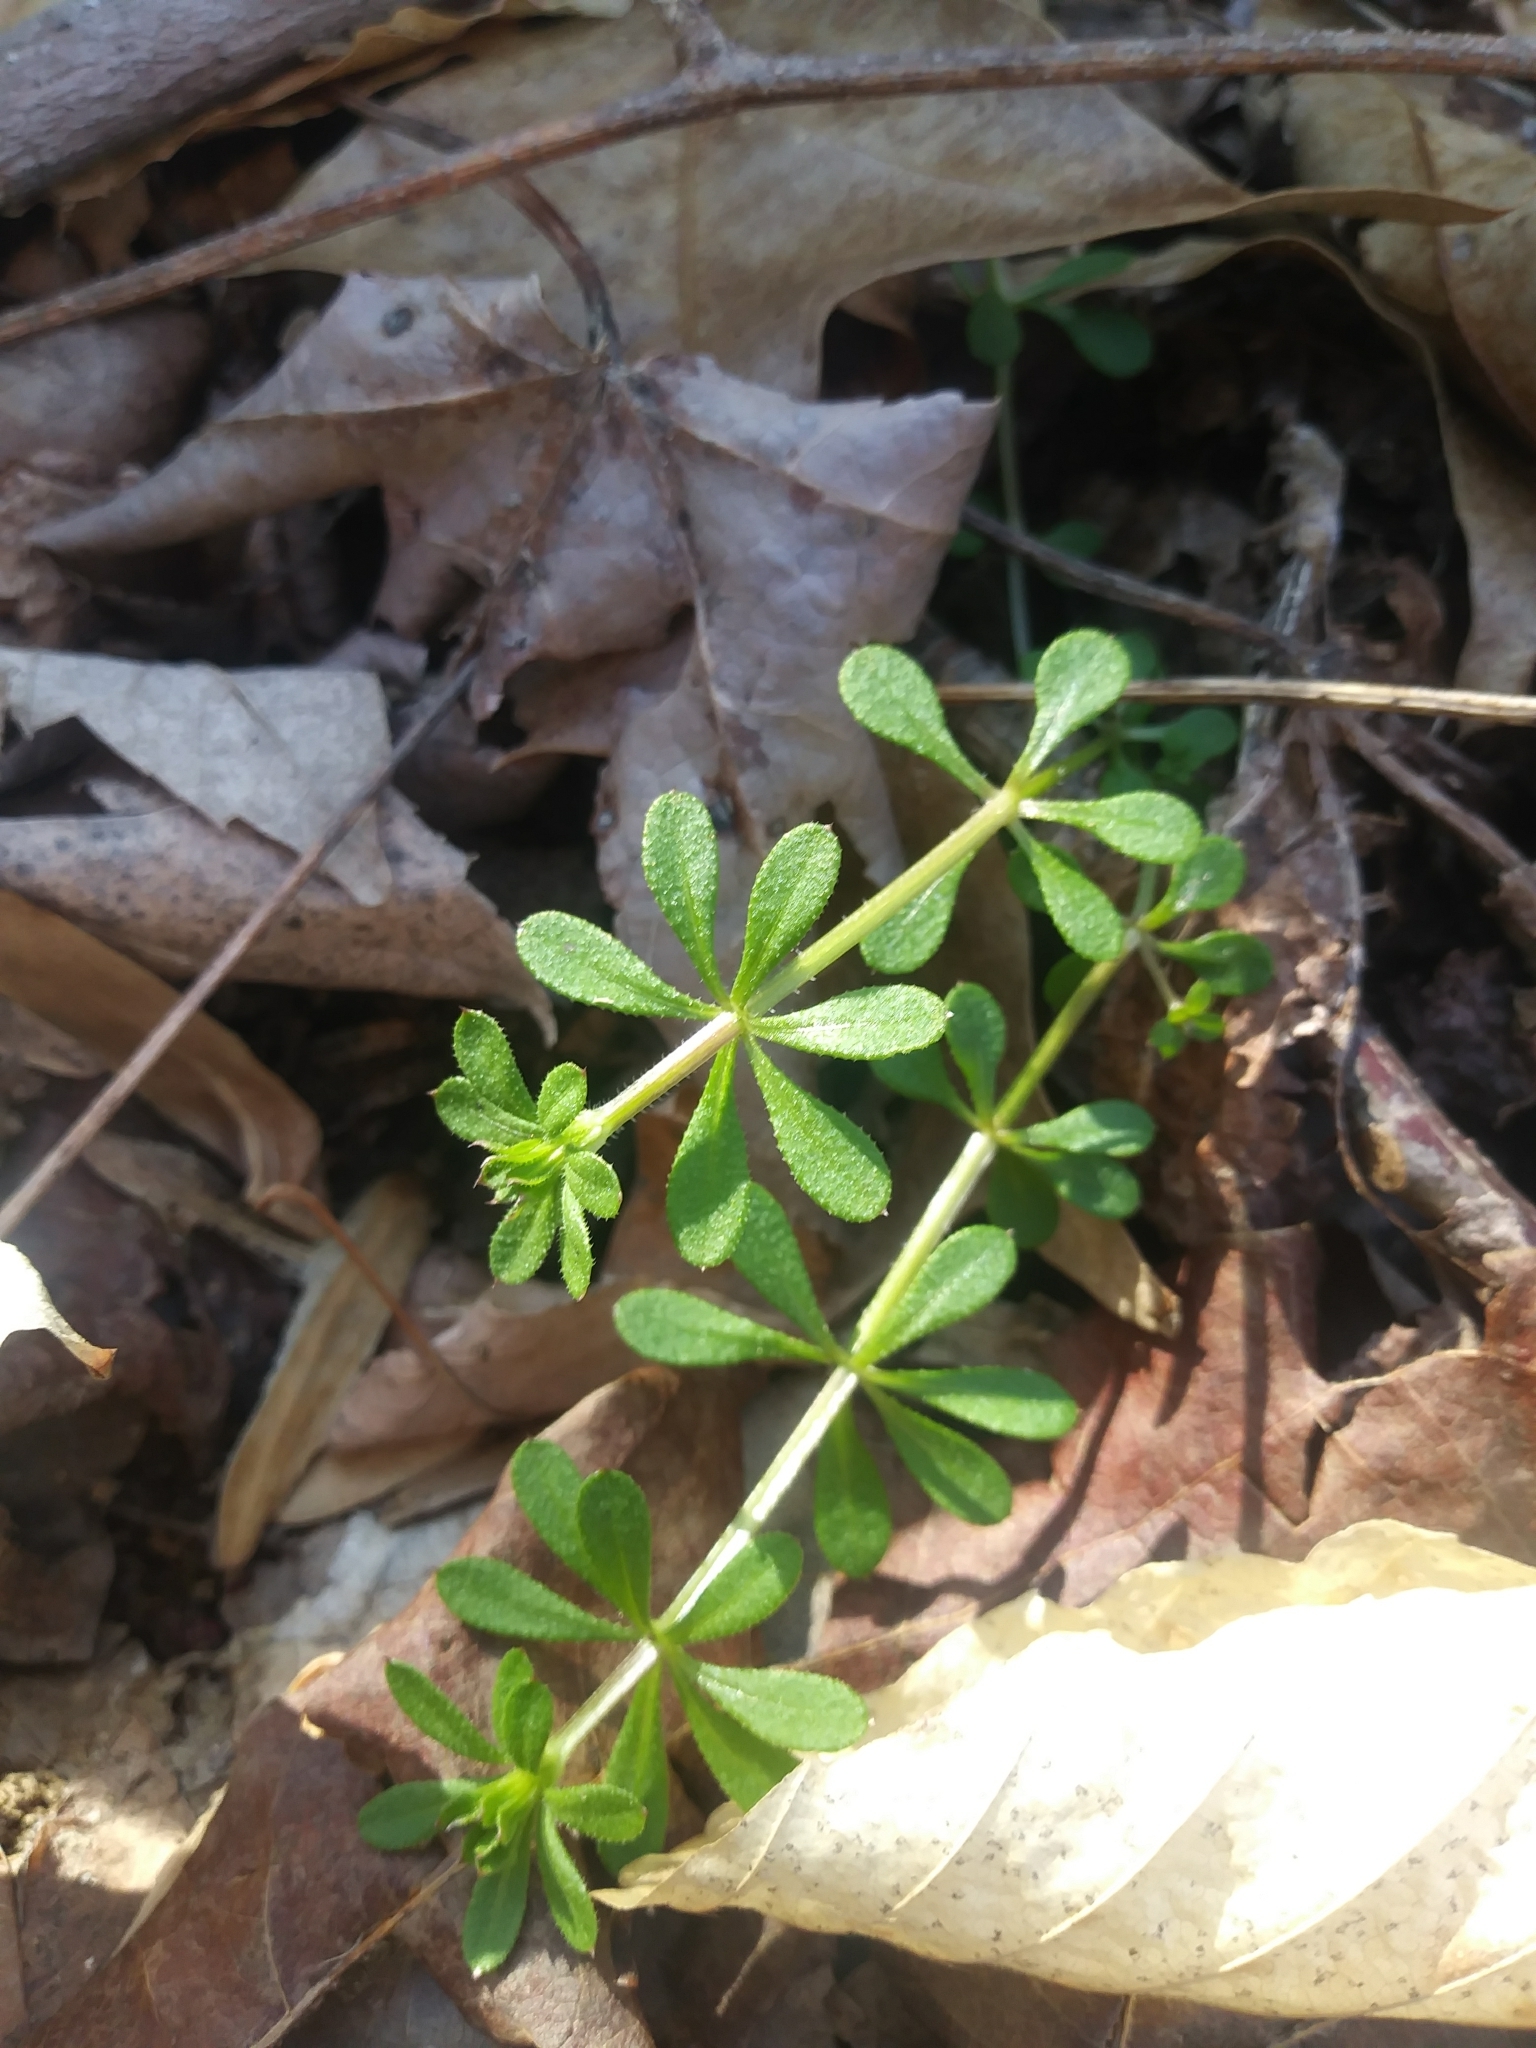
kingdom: Plantae
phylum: Tracheophyta
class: Magnoliopsida
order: Gentianales
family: Rubiaceae
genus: Galium
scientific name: Galium aparine
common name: Cleavers
